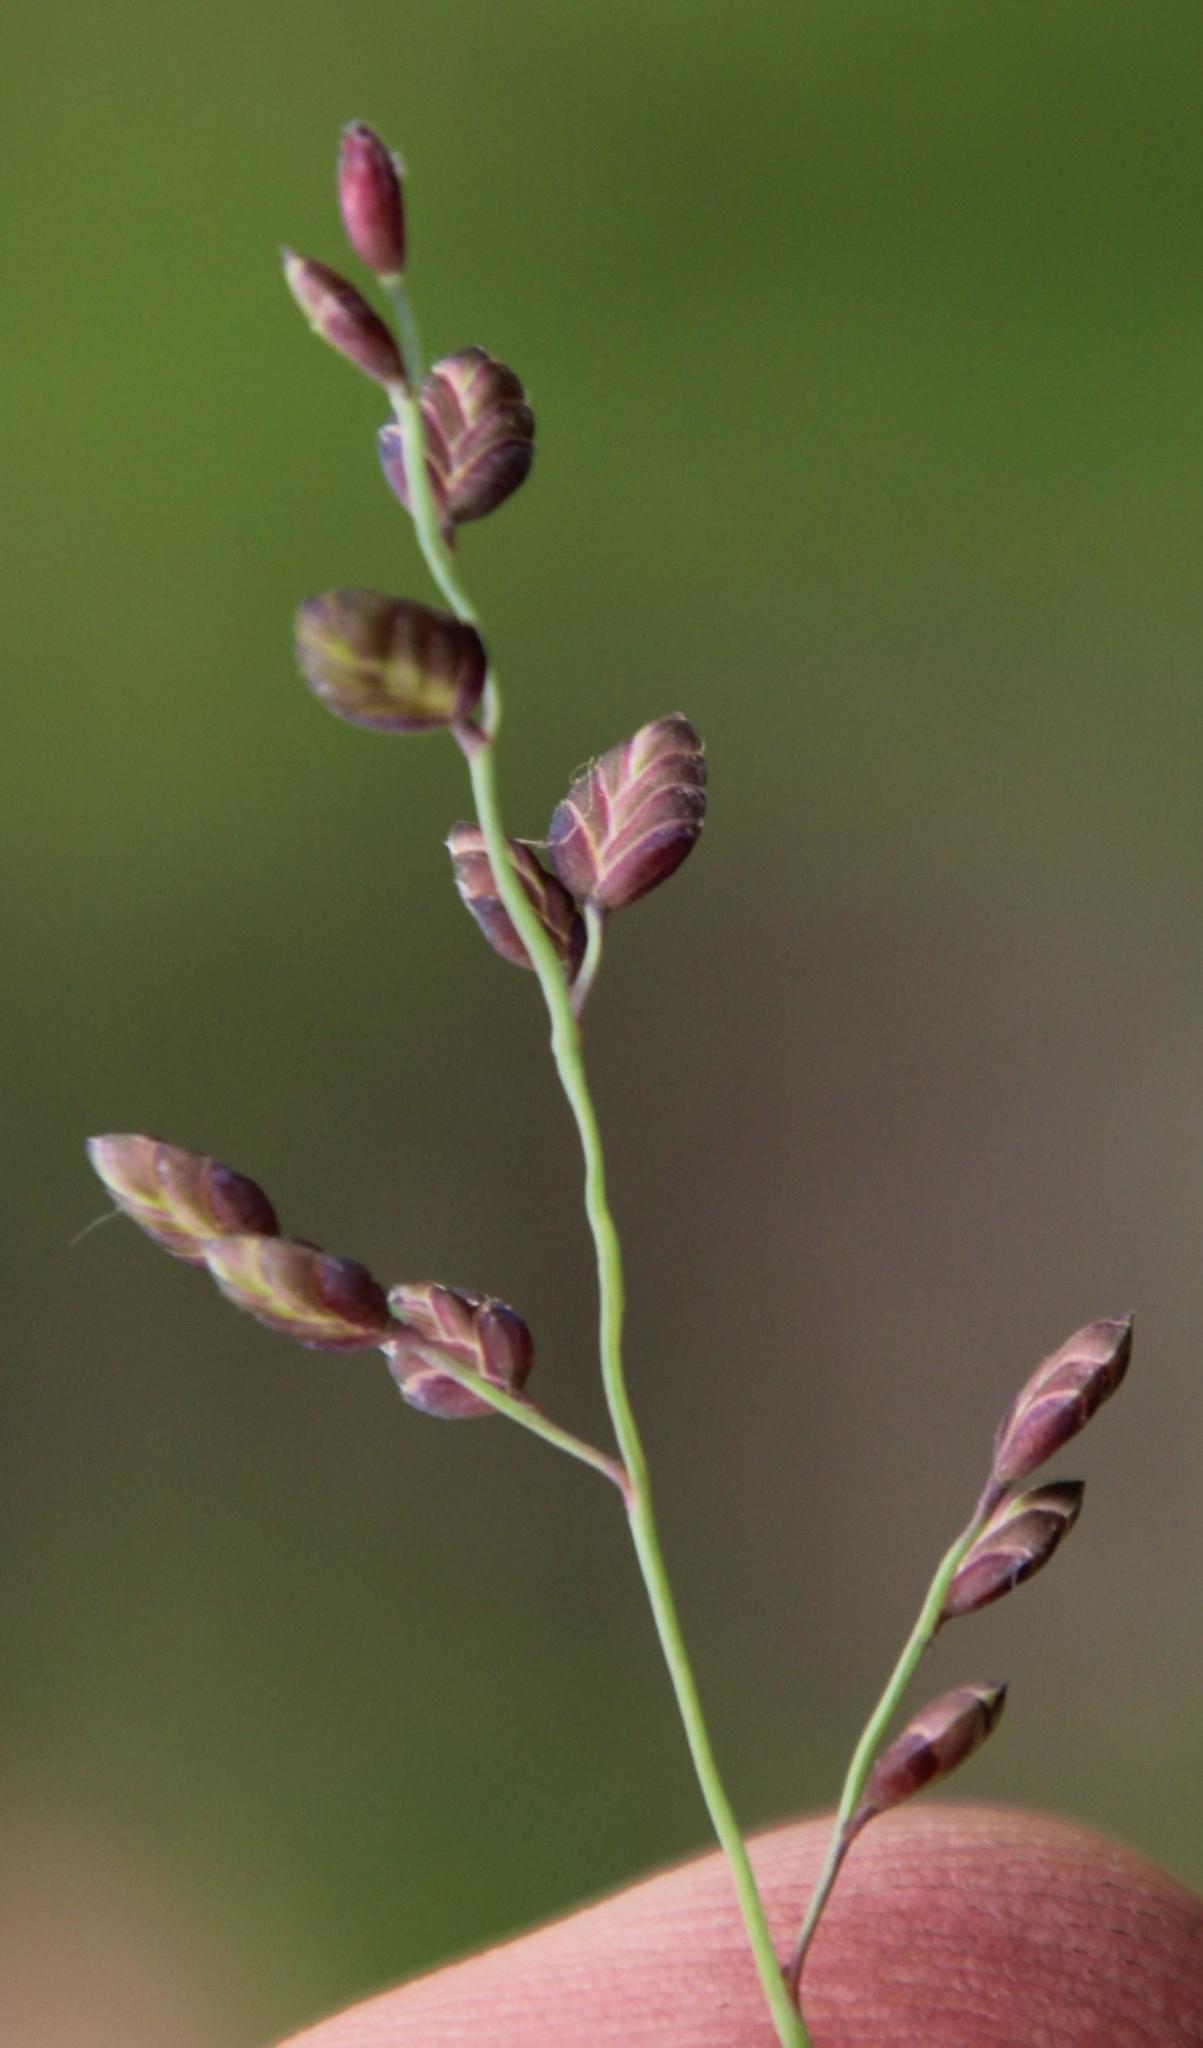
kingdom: Plantae
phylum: Tracheophyta
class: Liliopsida
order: Poales
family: Poaceae
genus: Eragrostis
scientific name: Eragrostis capensis
